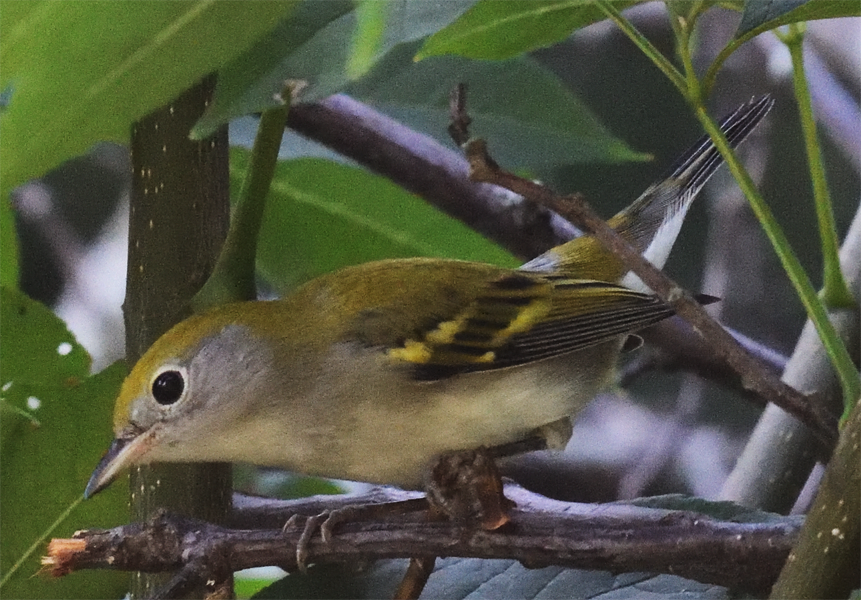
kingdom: Animalia
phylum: Chordata
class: Aves
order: Passeriformes
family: Parulidae
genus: Setophaga
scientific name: Setophaga pensylvanica
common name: Chestnut-sided warbler
